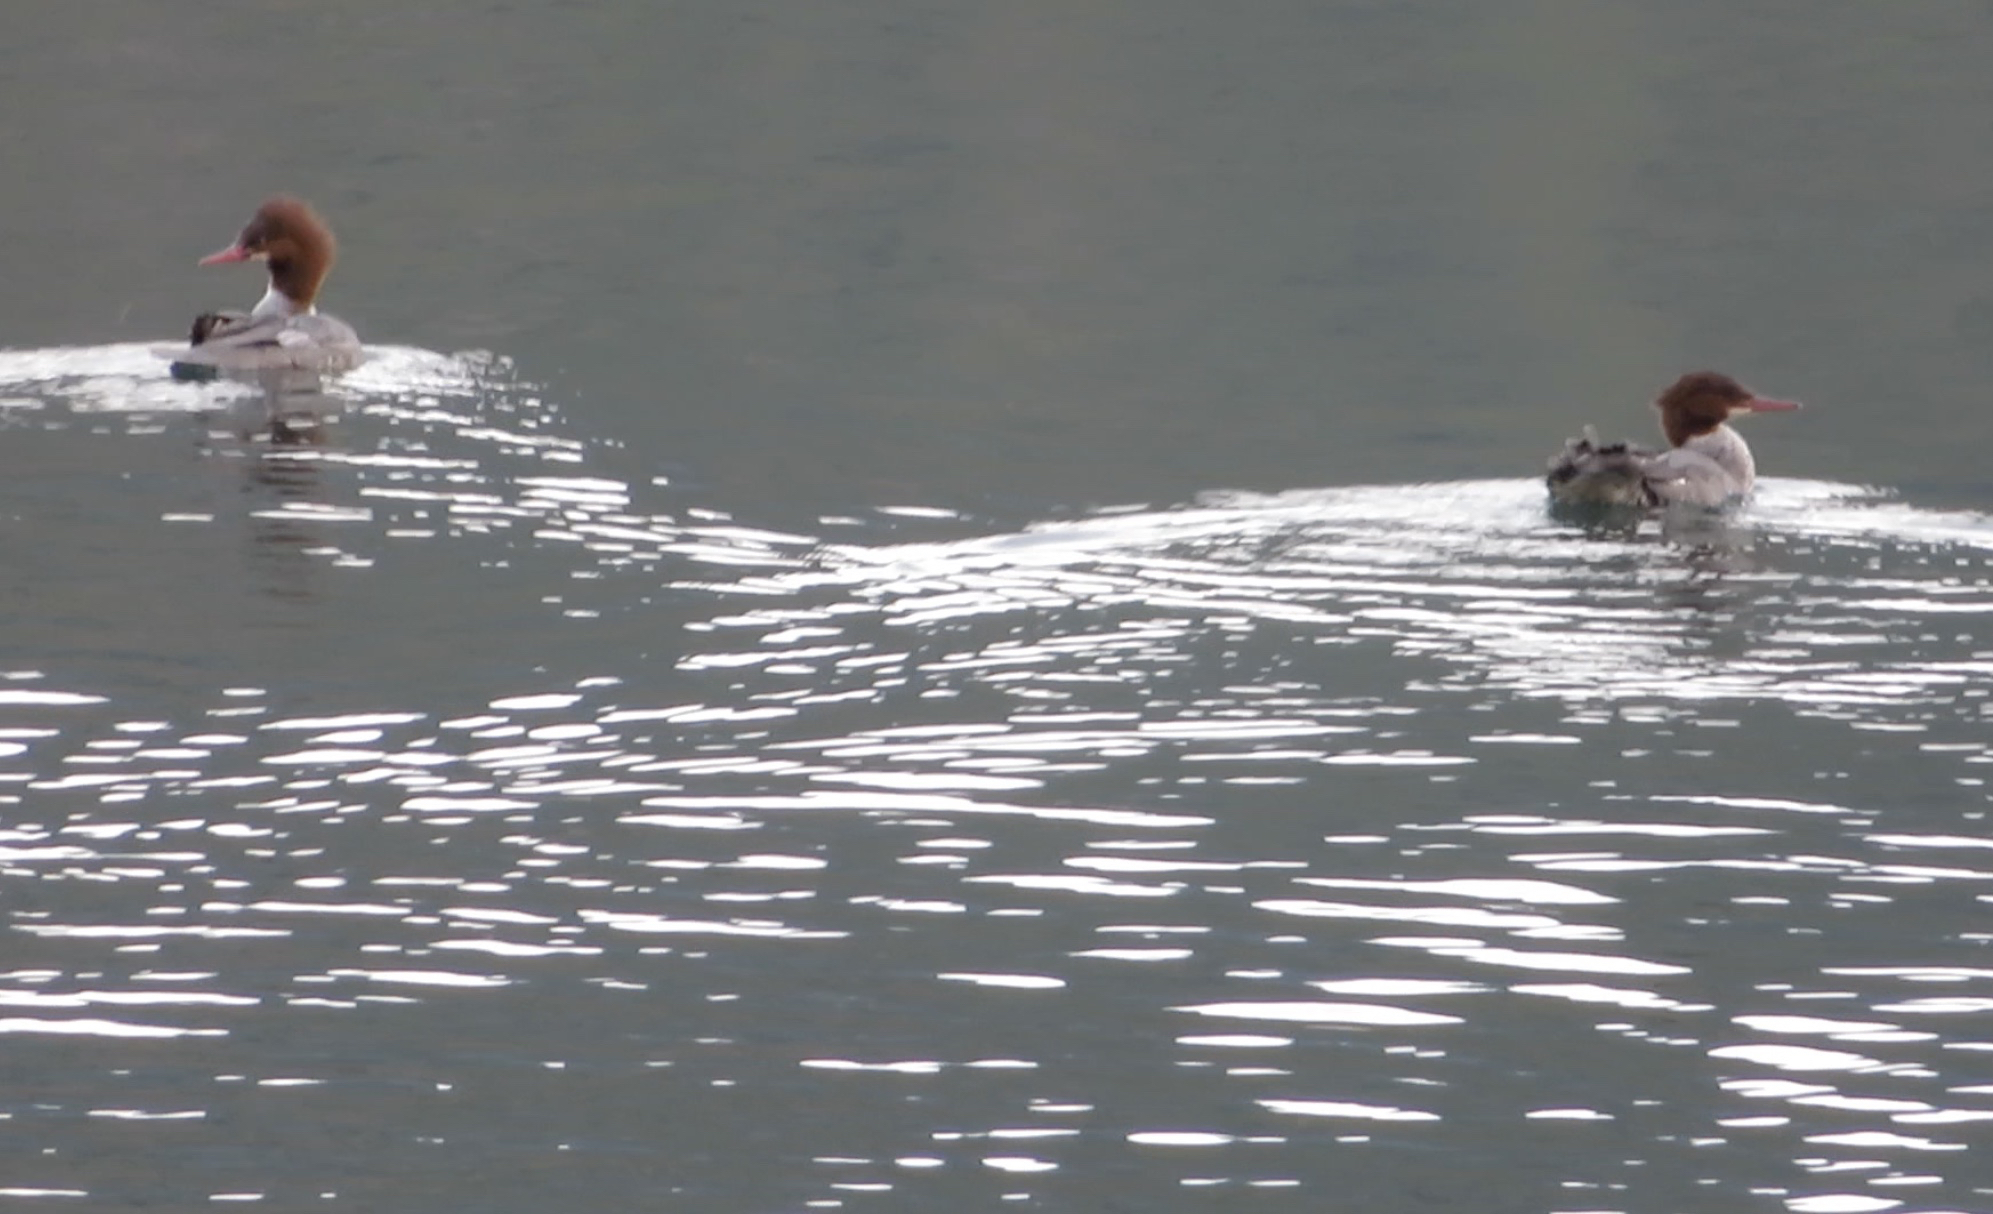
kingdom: Animalia
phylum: Chordata
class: Aves
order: Anseriformes
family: Anatidae
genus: Mergus
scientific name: Mergus merganser
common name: Common merganser
